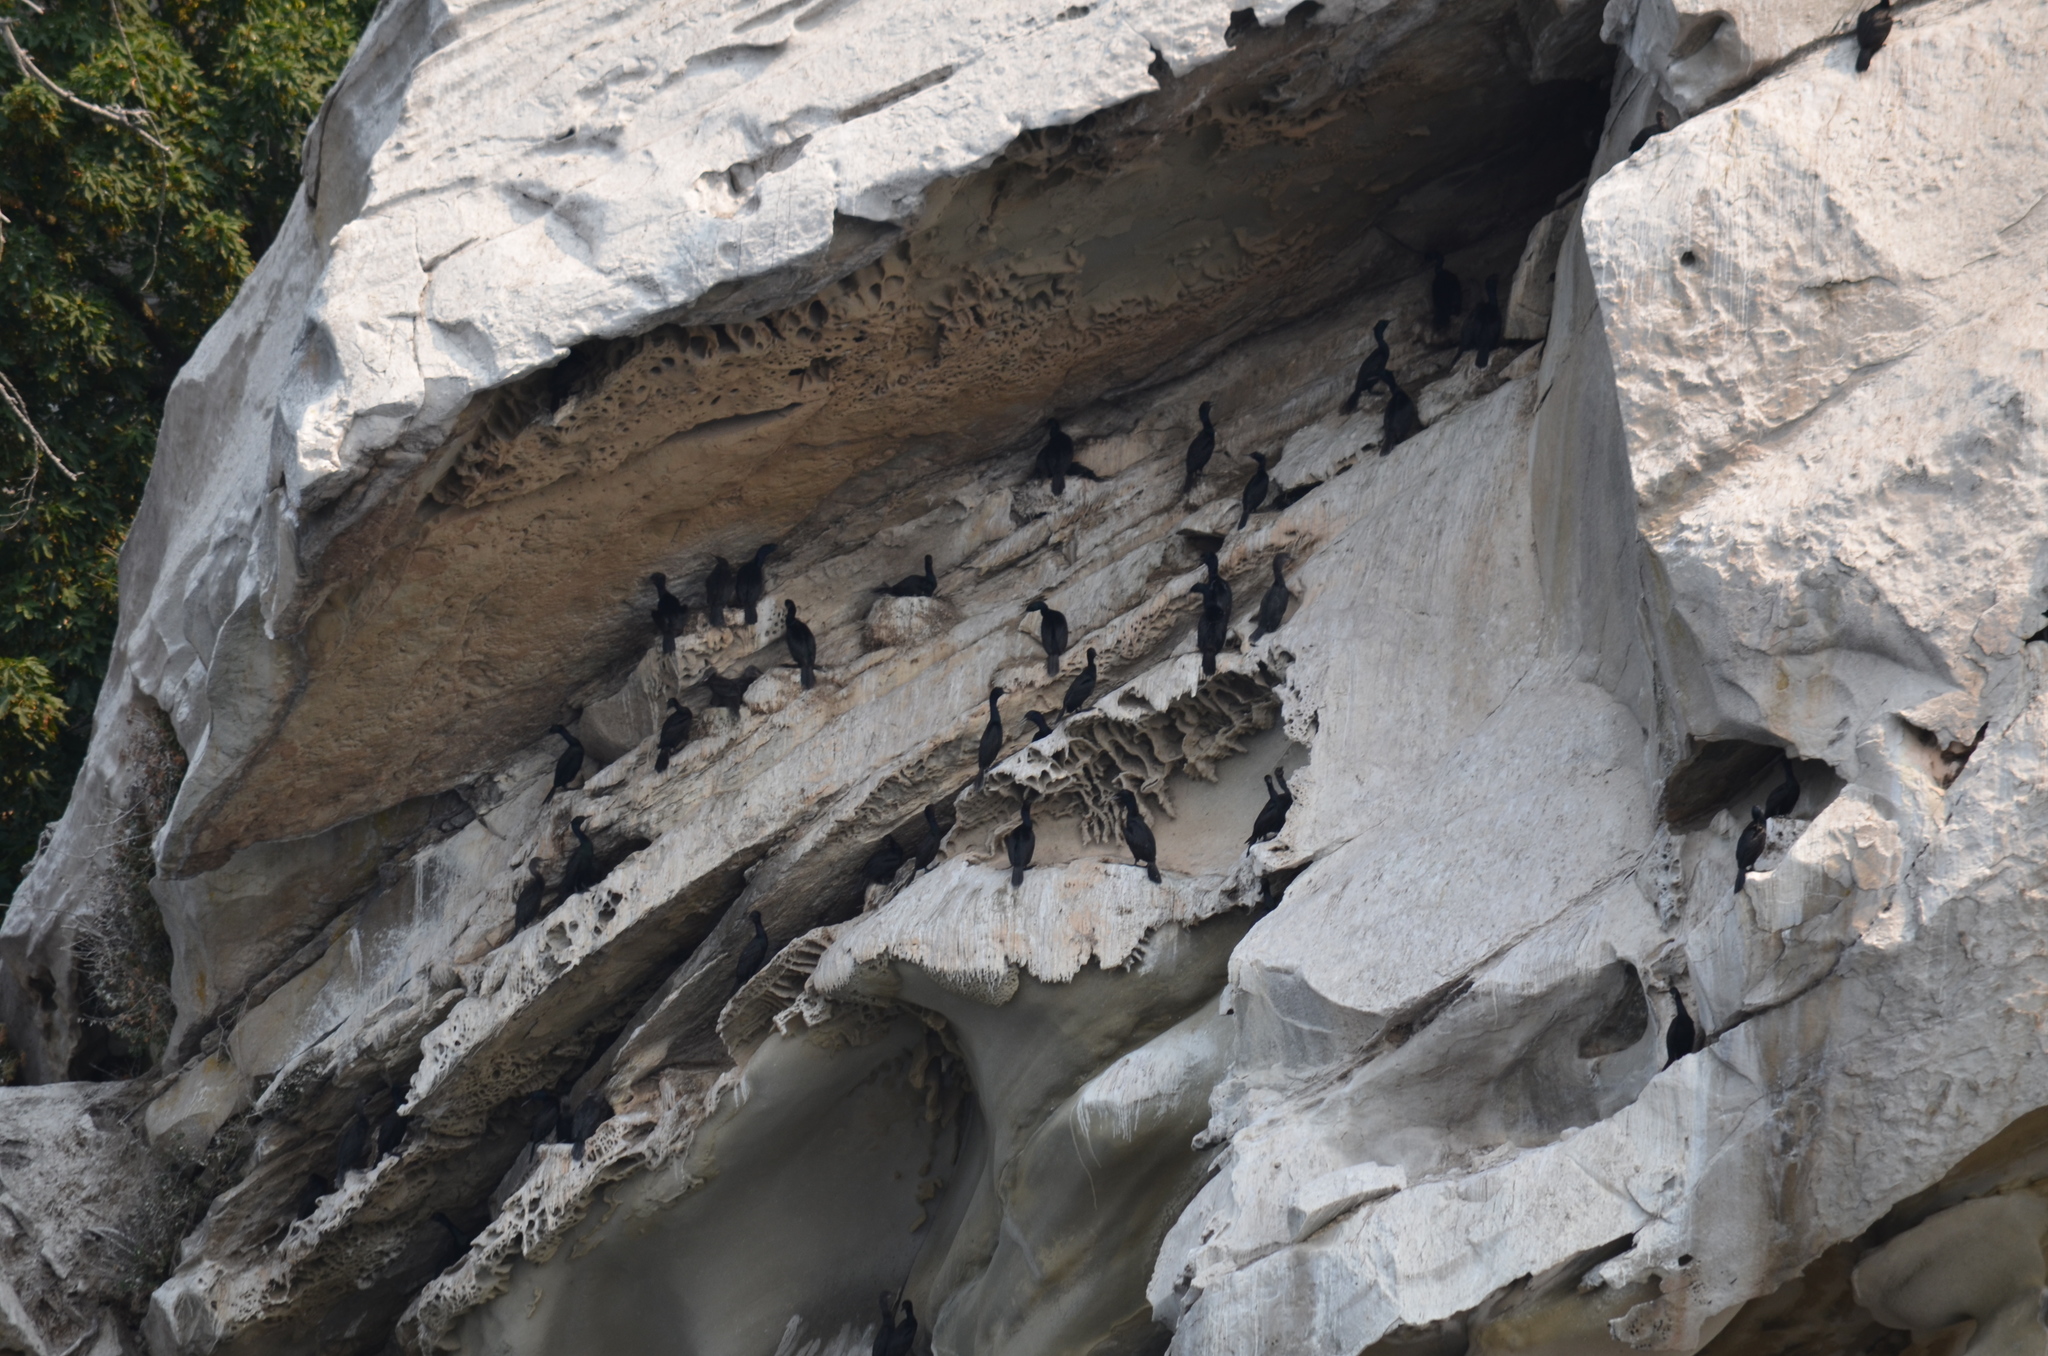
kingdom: Animalia
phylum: Chordata
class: Aves
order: Suliformes
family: Phalacrocoracidae
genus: Phalacrocorax
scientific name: Phalacrocorax pelagicus
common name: Pelagic cormorant
